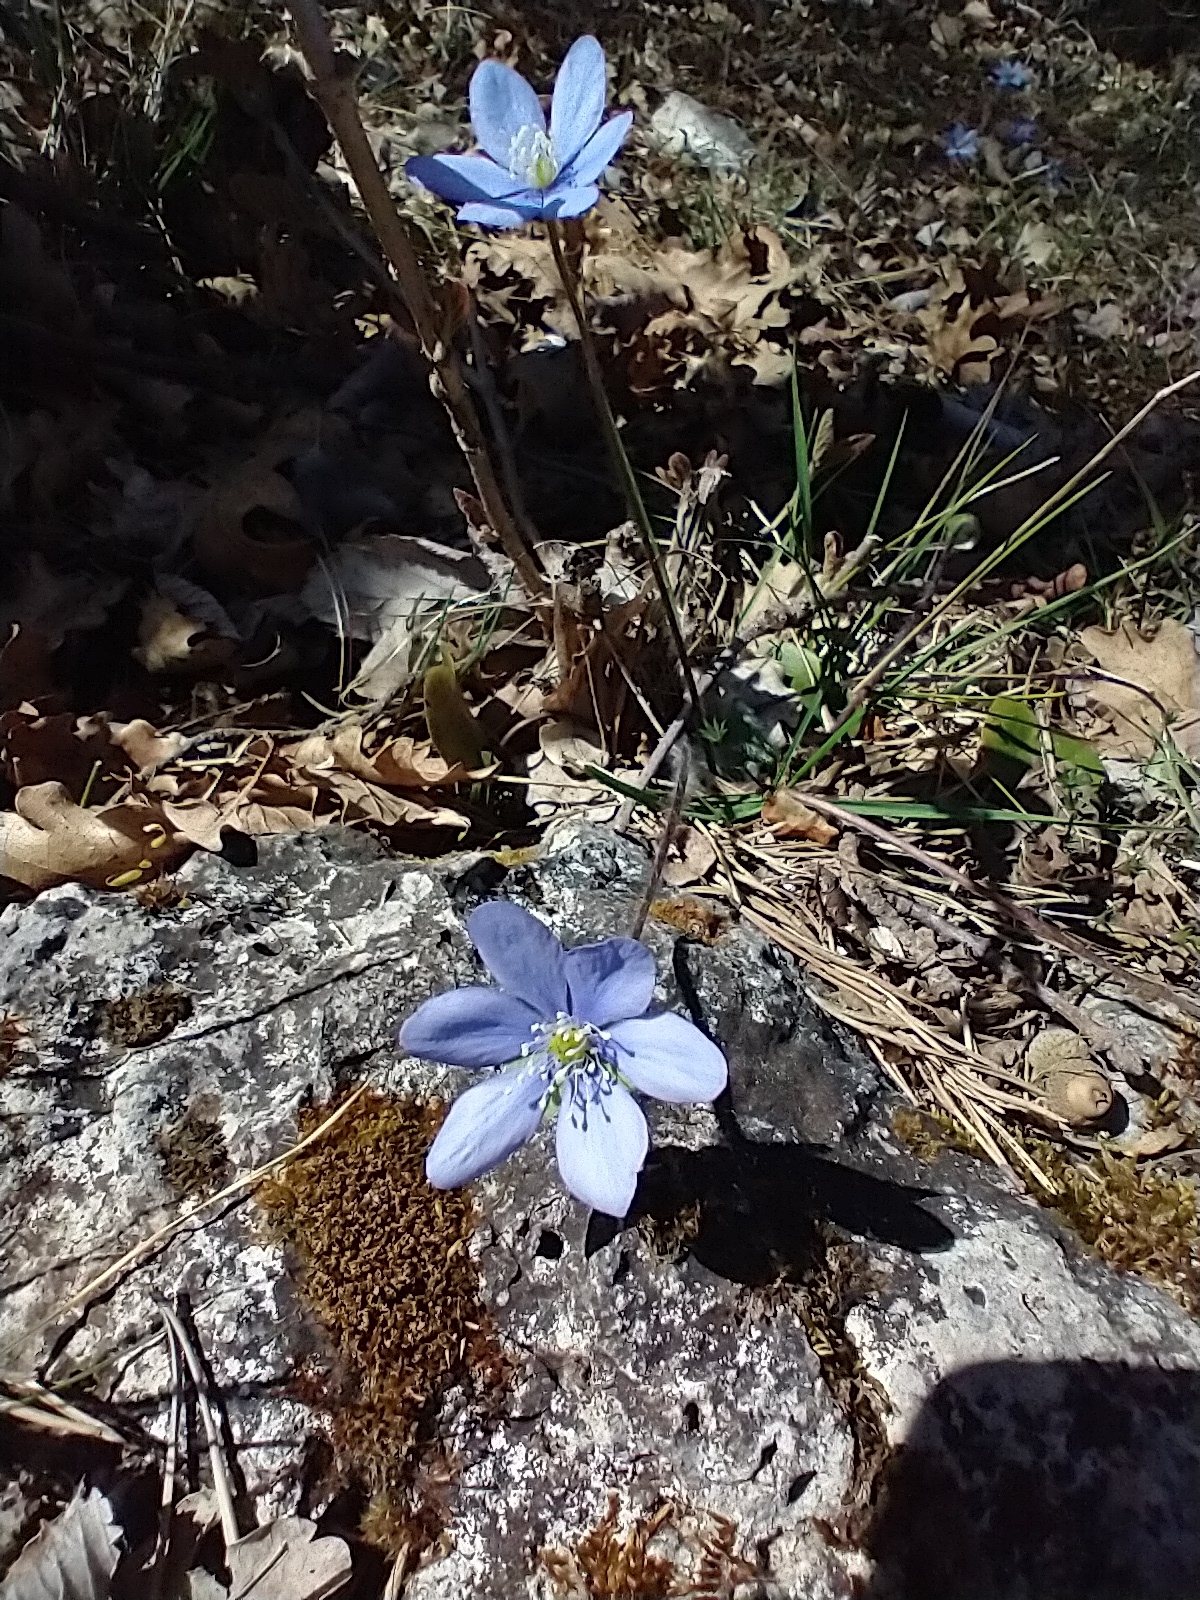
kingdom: Plantae
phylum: Tracheophyta
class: Magnoliopsida
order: Ranunculales
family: Ranunculaceae
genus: Hepatica
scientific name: Hepatica nobilis
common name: Liverleaf
